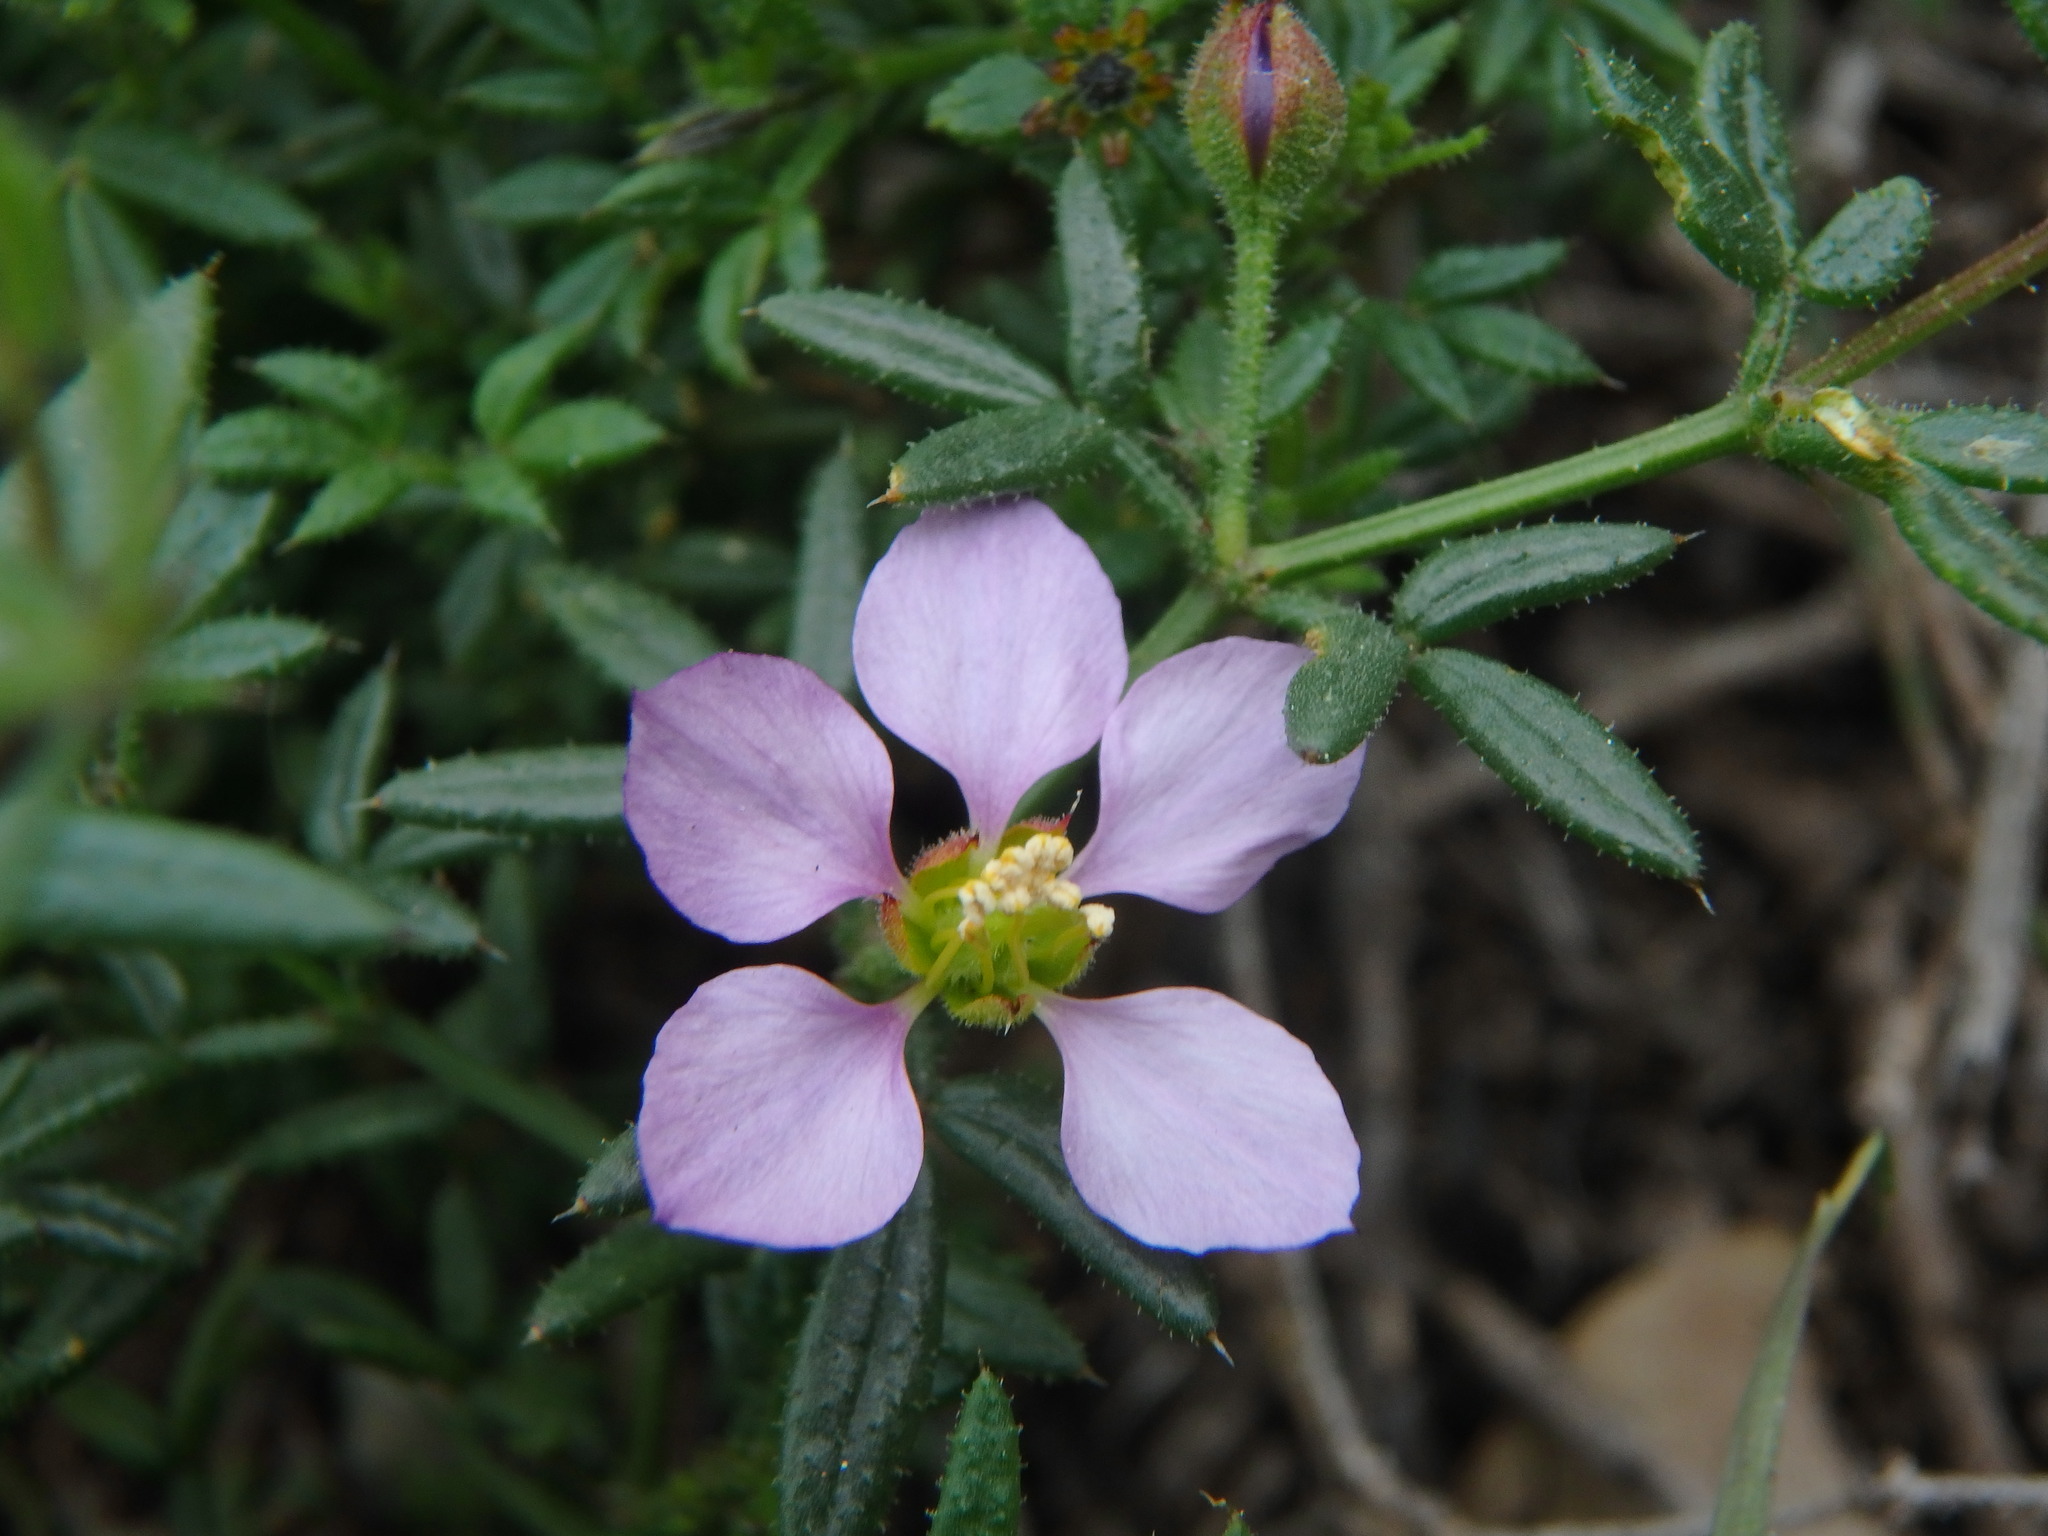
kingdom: Plantae
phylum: Tracheophyta
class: Magnoliopsida
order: Zygophyllales
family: Zygophyllaceae
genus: Fagonia
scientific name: Fagonia cretica
